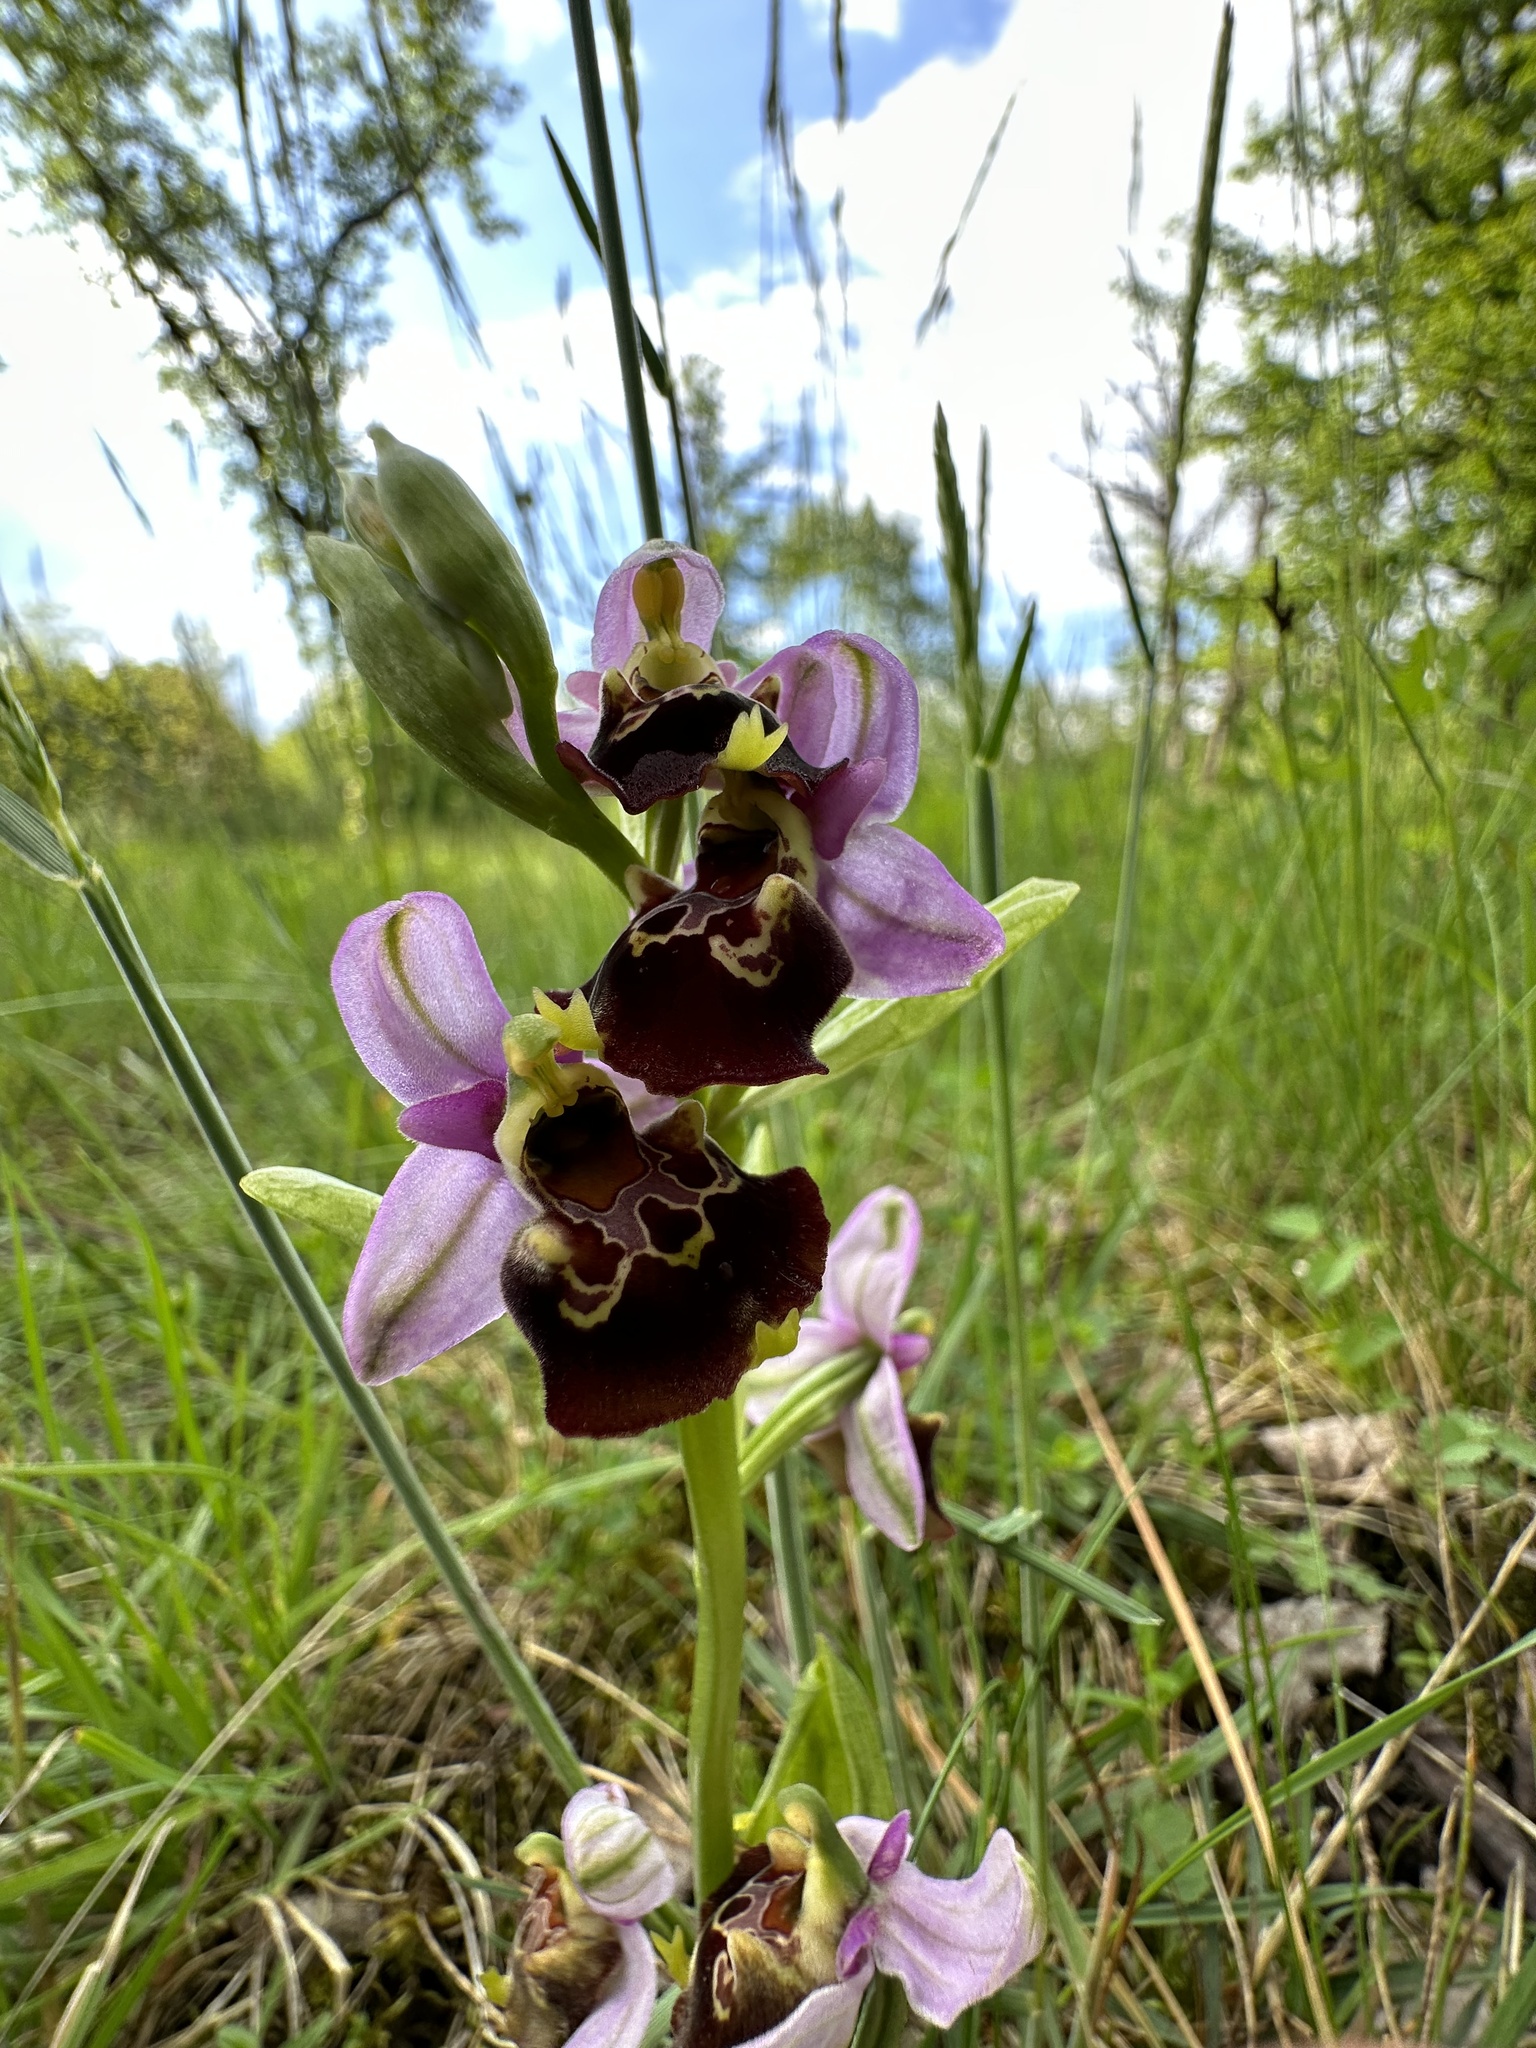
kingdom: Plantae
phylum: Tracheophyta
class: Liliopsida
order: Asparagales
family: Orchidaceae
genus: Ophrys
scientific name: Ophrys holosericea
